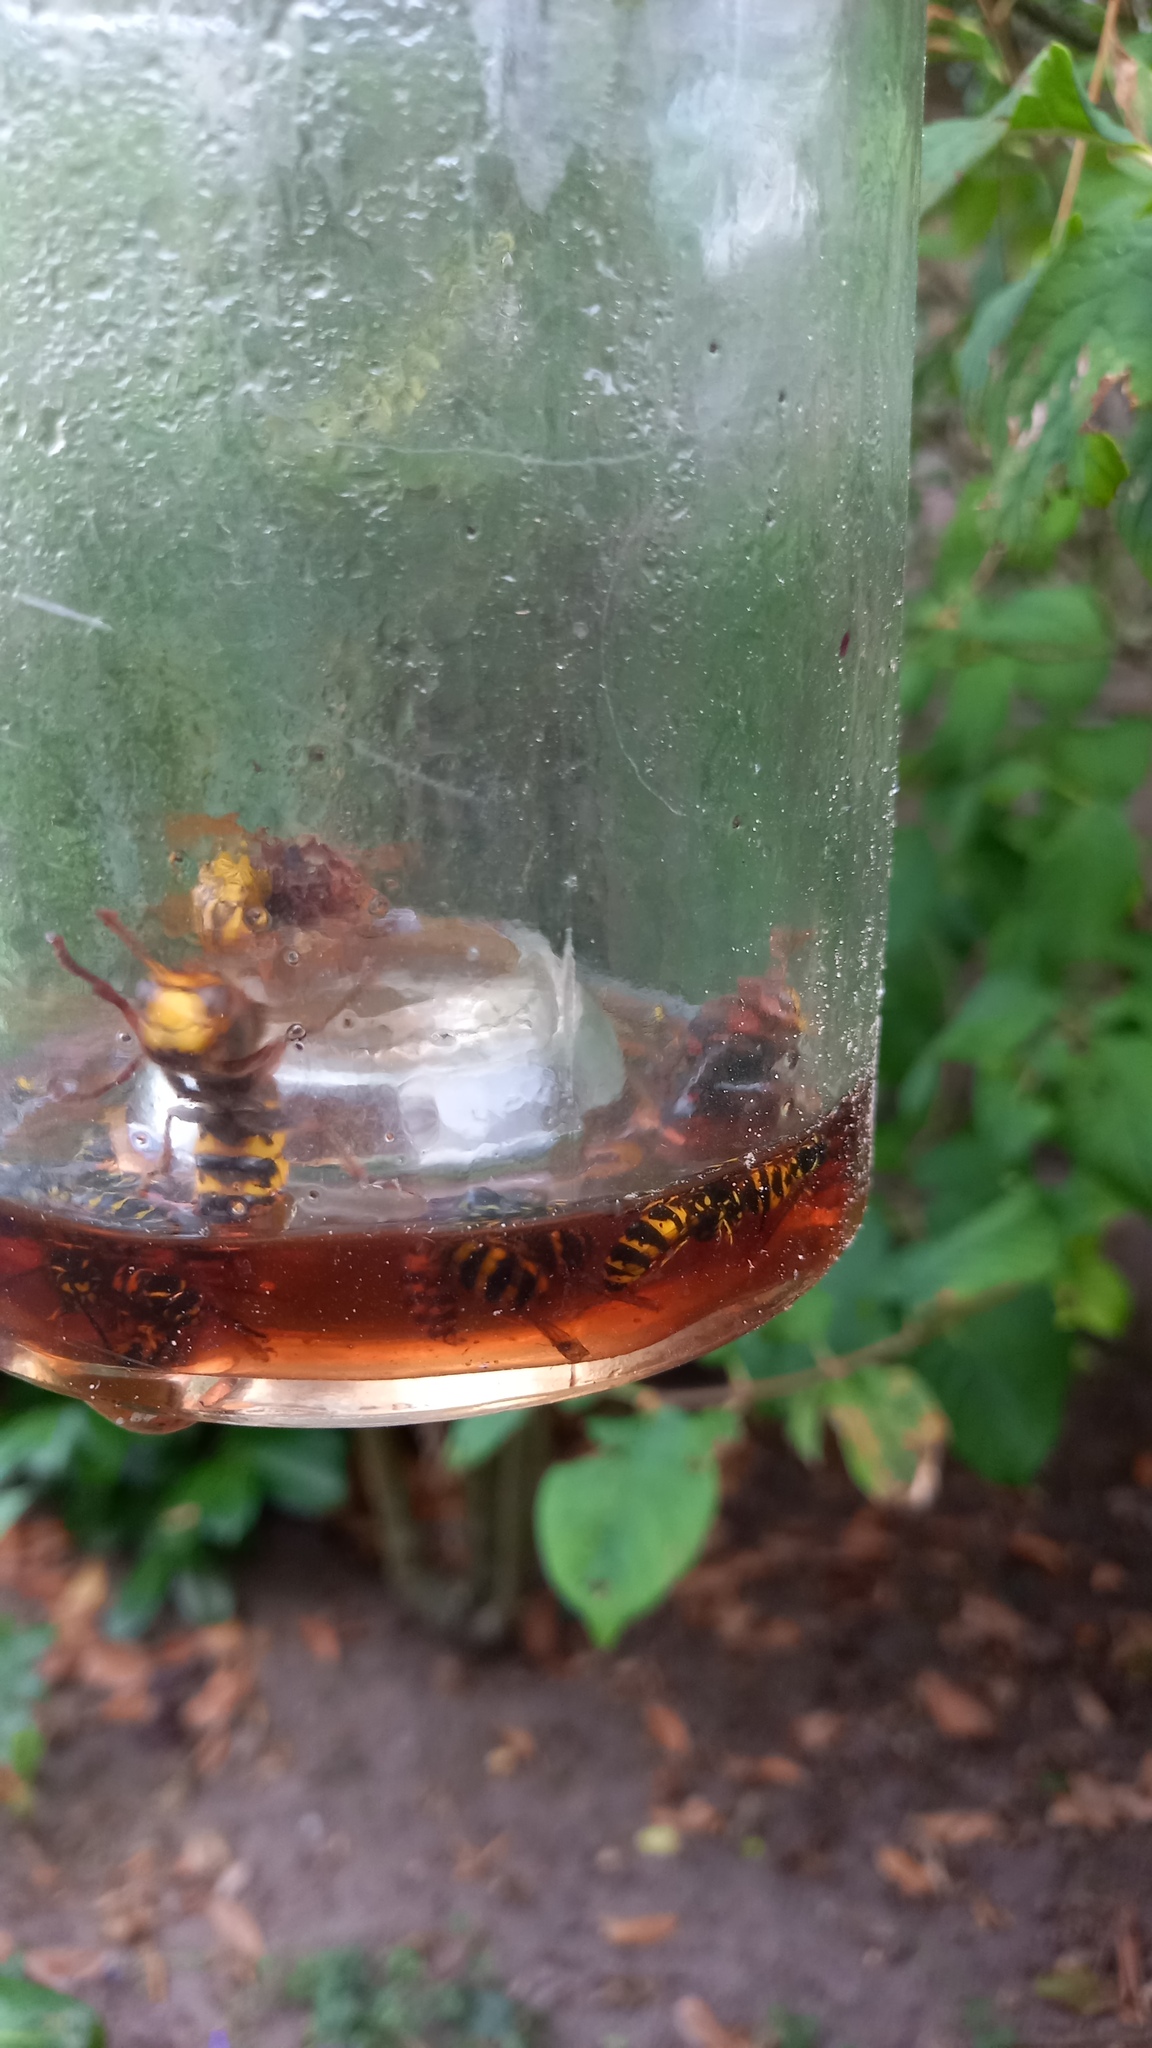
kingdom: Animalia
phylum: Arthropoda
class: Insecta
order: Hymenoptera
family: Vespidae
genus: Vespa
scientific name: Vespa crabro
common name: Hornet
